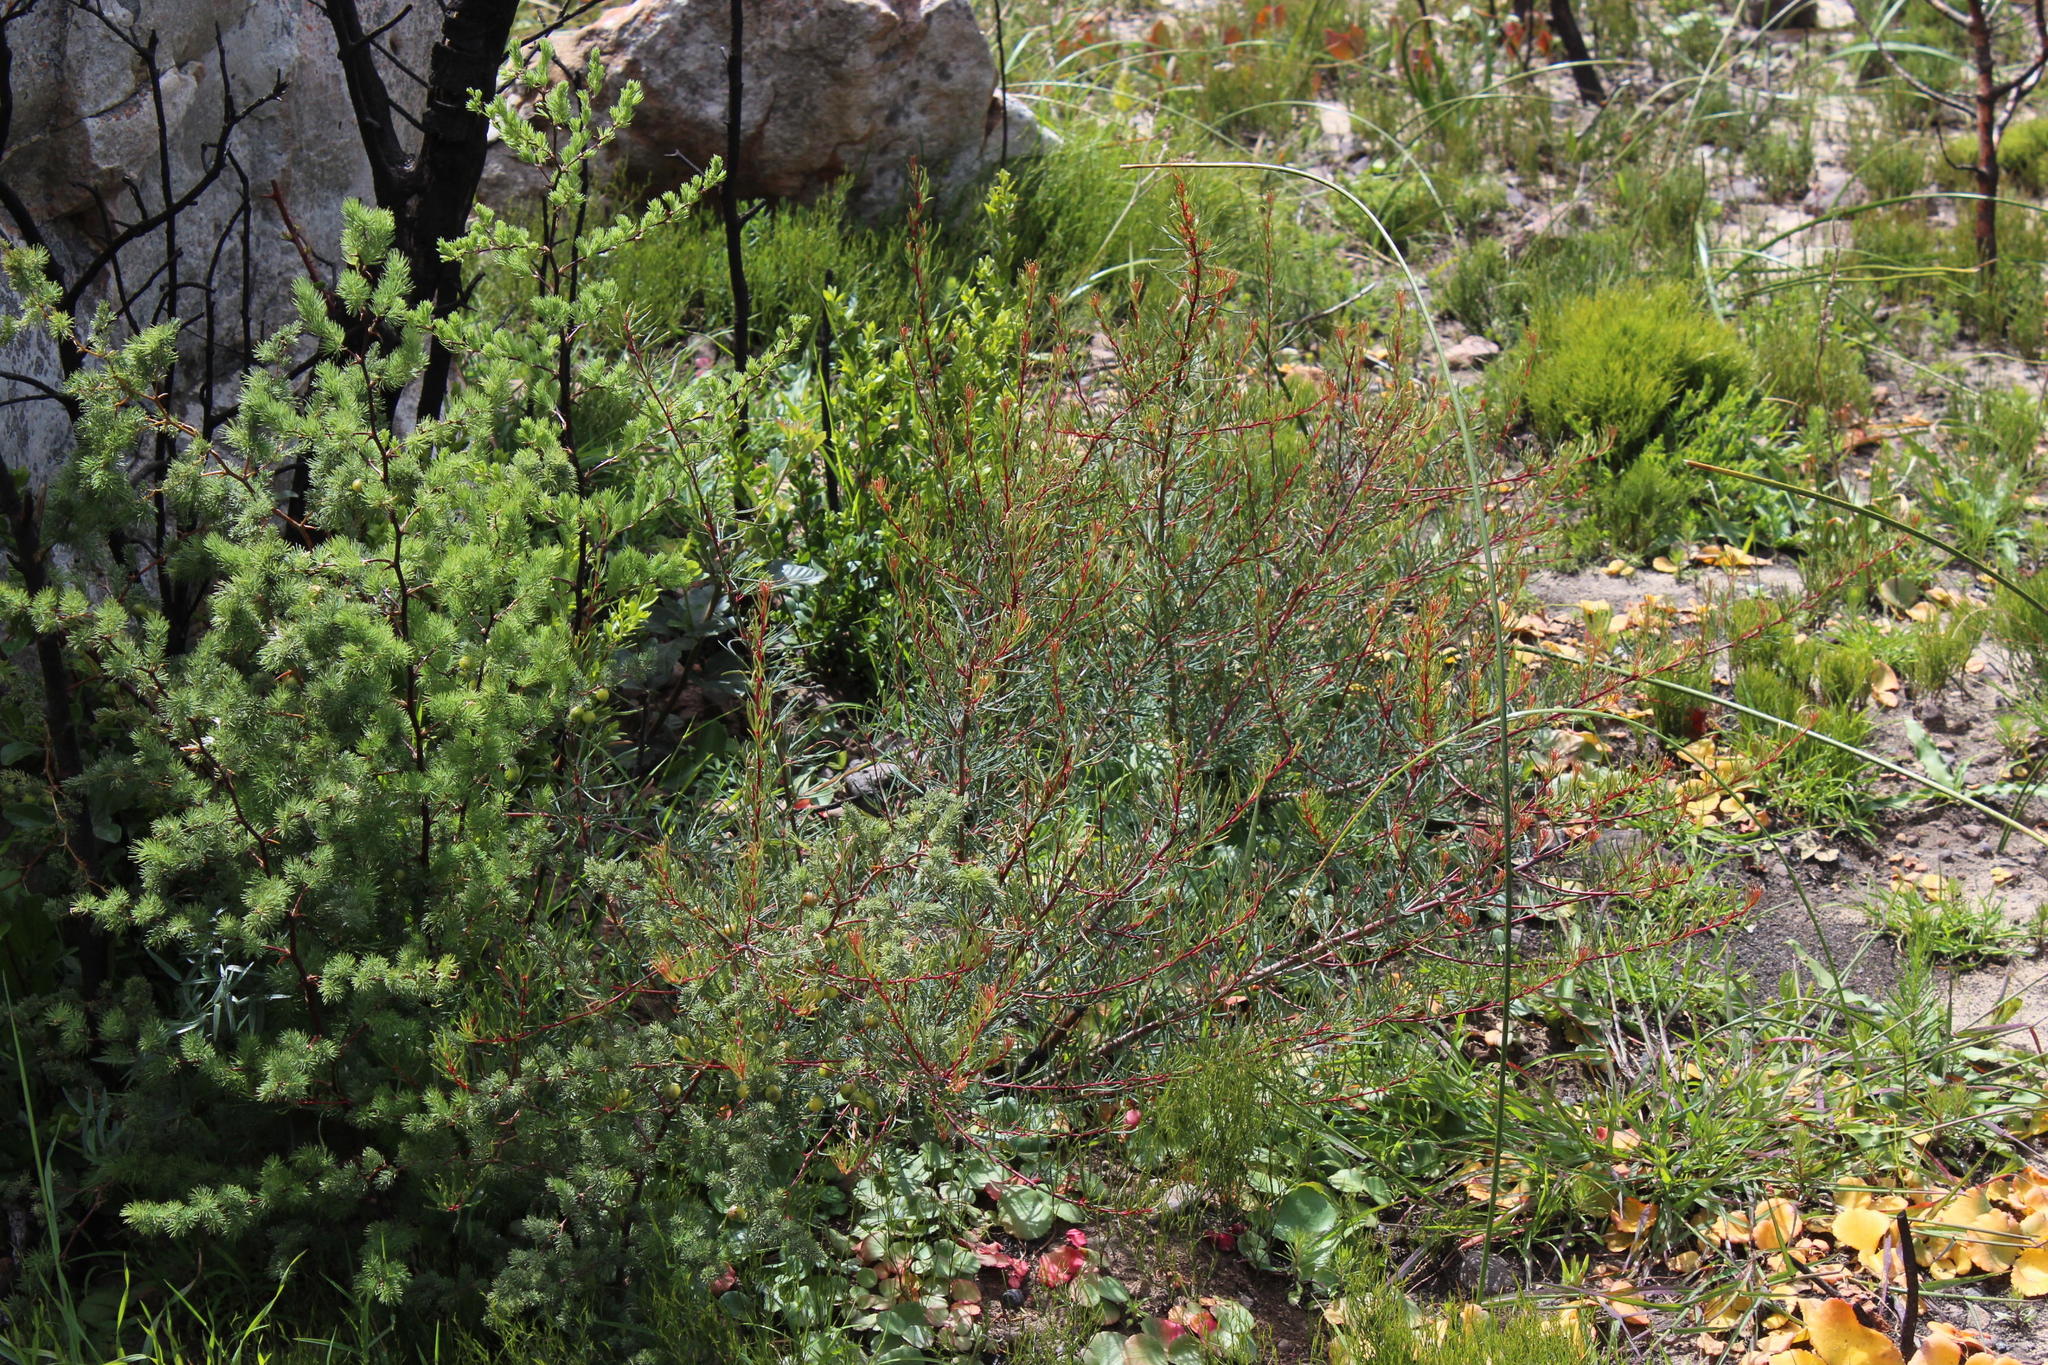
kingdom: Plantae
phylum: Tracheophyta
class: Magnoliopsida
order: Sapindales
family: Anacardiaceae
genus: Searsia
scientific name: Searsia rosmarinifolia
